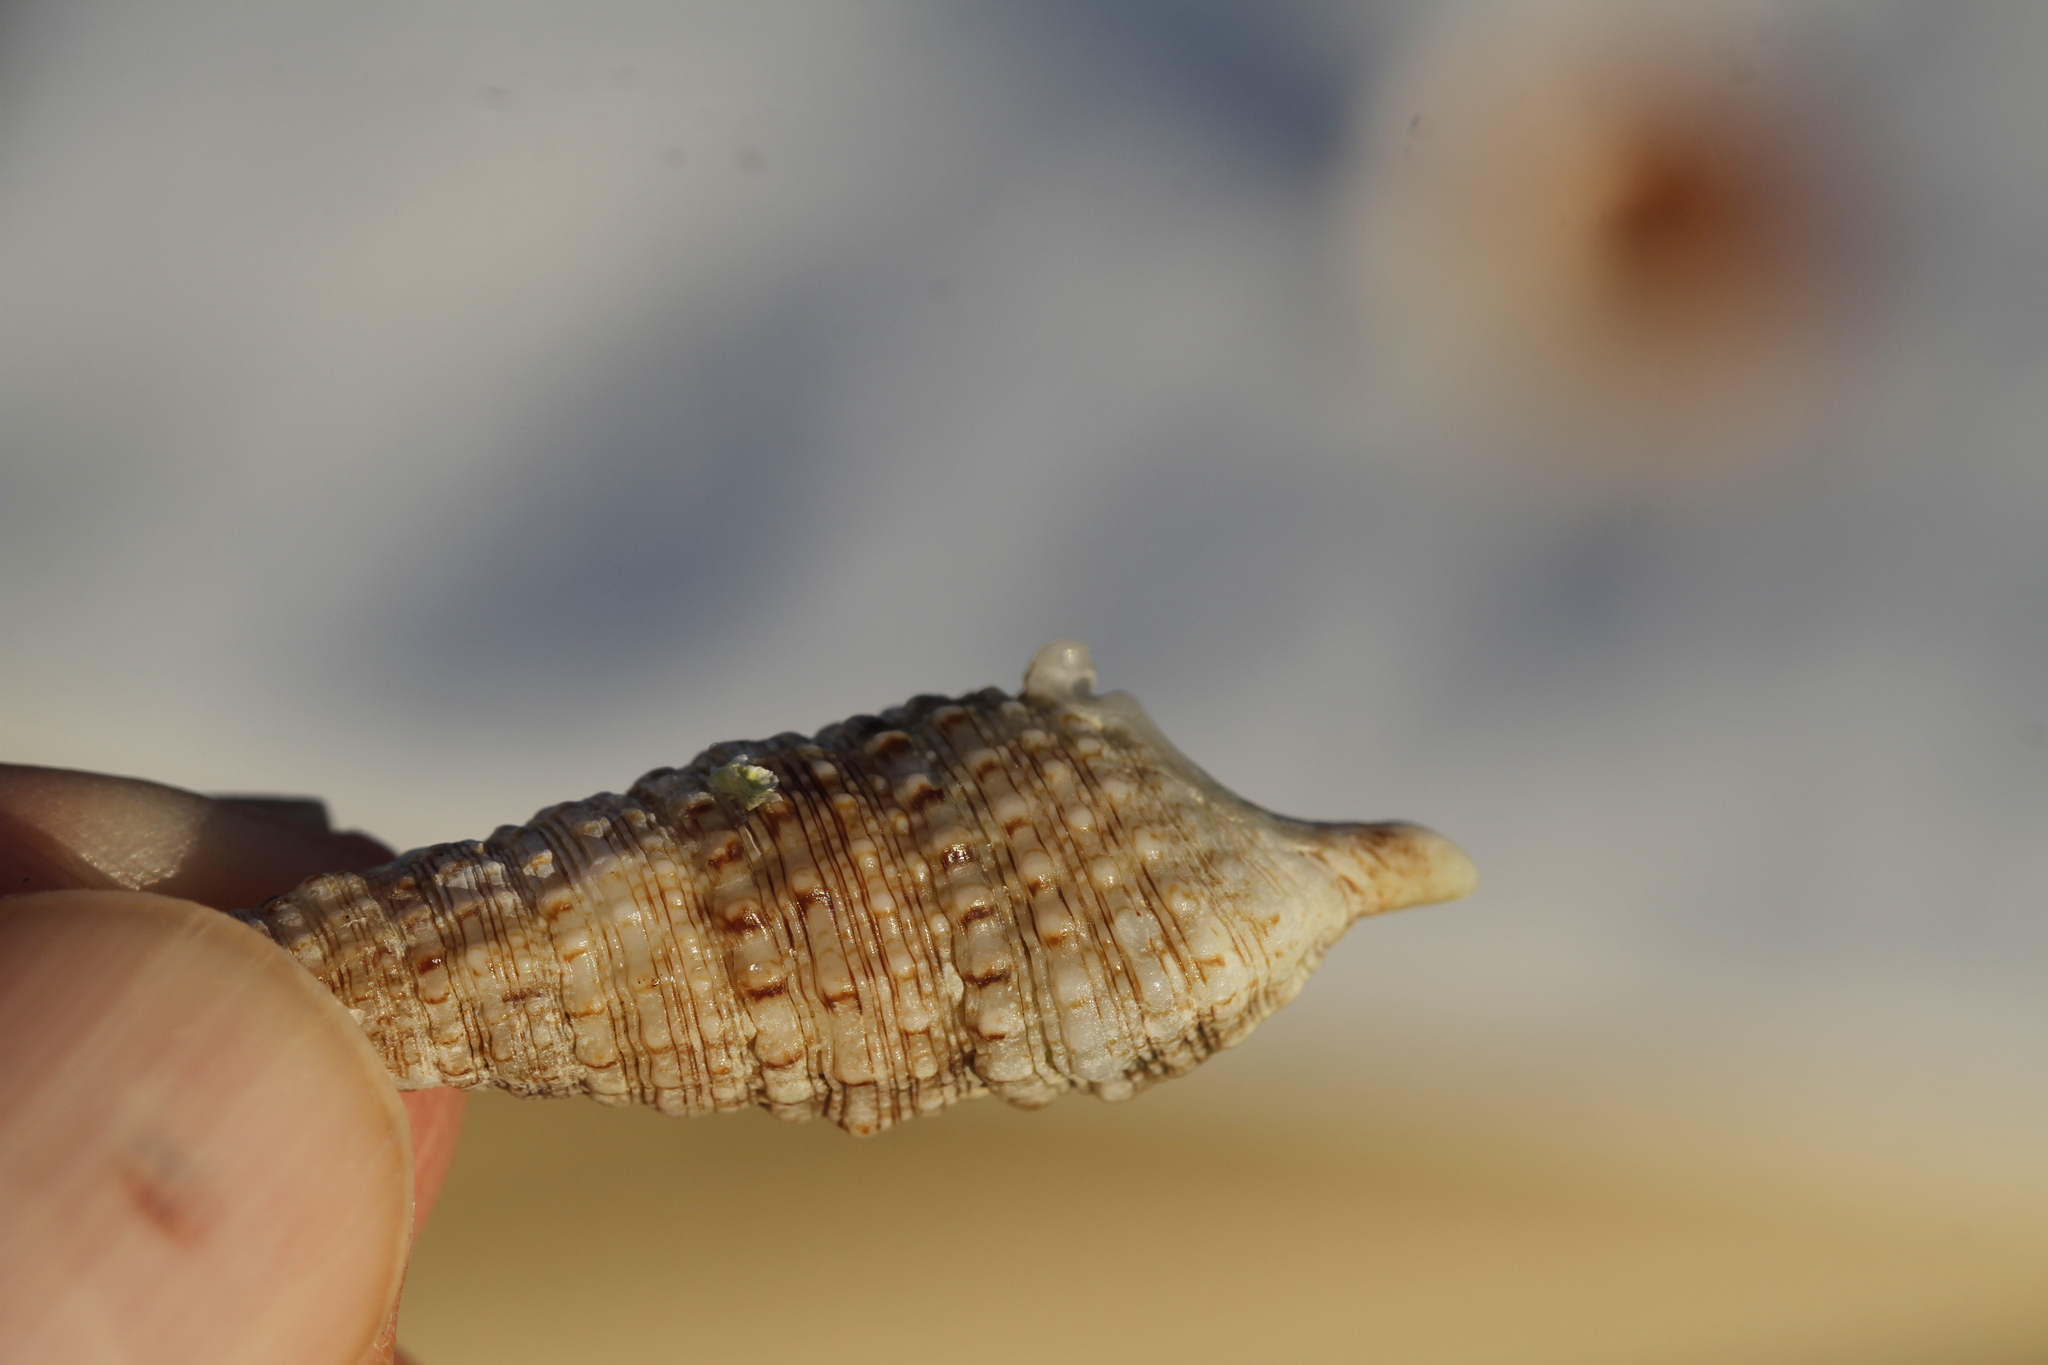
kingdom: Animalia
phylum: Mollusca
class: Gastropoda
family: Cerithiidae
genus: Cerithium
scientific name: Cerithium atratum
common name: Dark cerith
